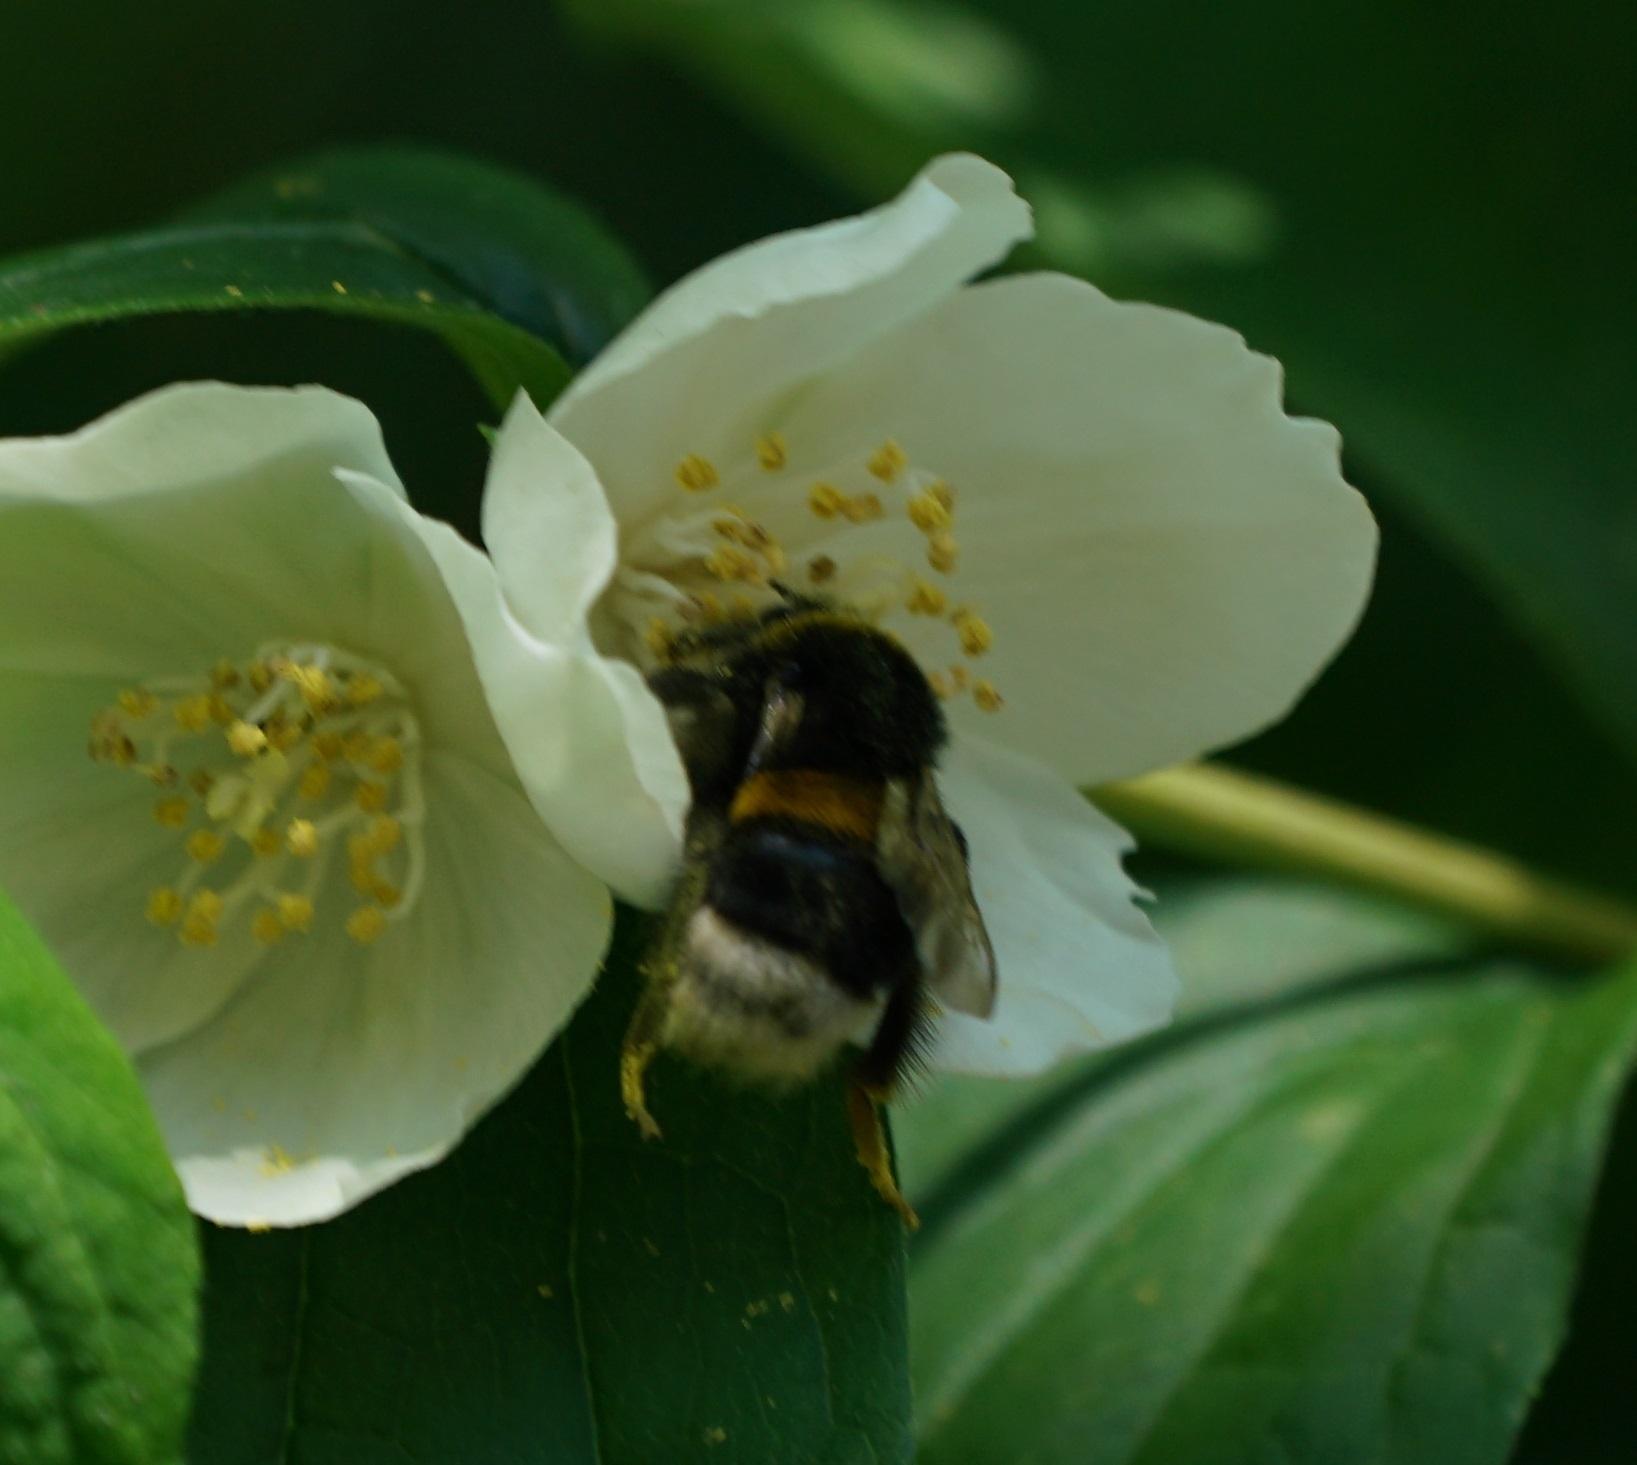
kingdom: Animalia
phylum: Arthropoda
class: Insecta
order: Hymenoptera
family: Apidae
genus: Bombus
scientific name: Bombus terrestris
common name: Buff-tailed bumblebee
